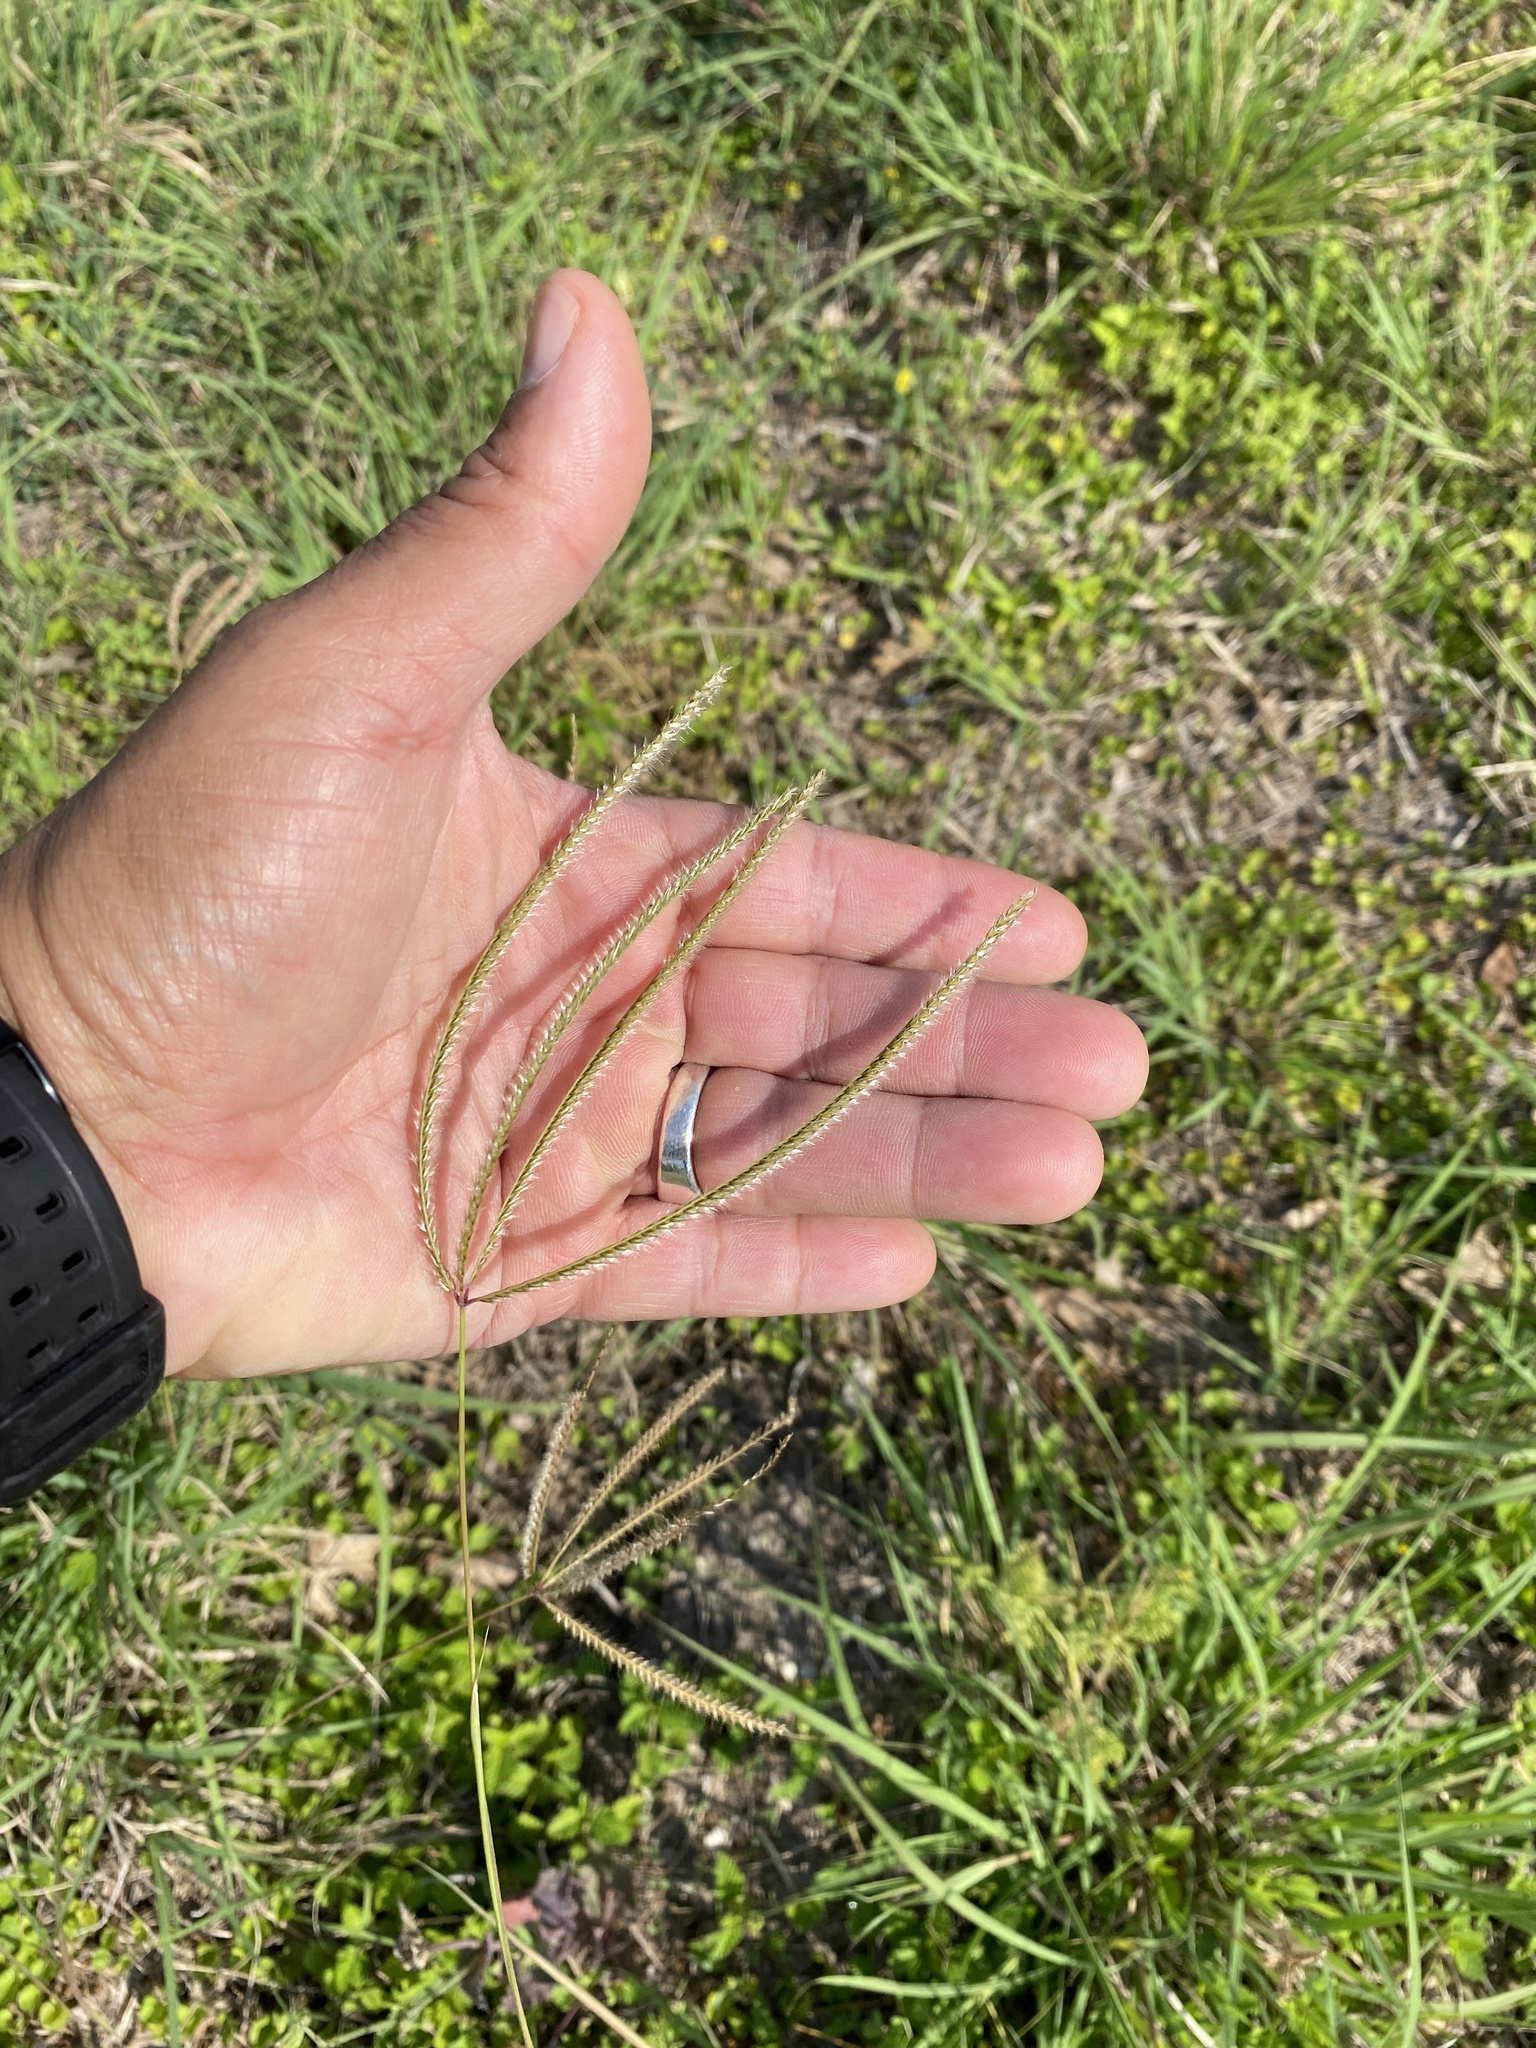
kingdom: Plantae
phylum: Tracheophyta
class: Liliopsida
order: Poales
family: Poaceae
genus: Stapfochloa
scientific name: Stapfochloa canterae
